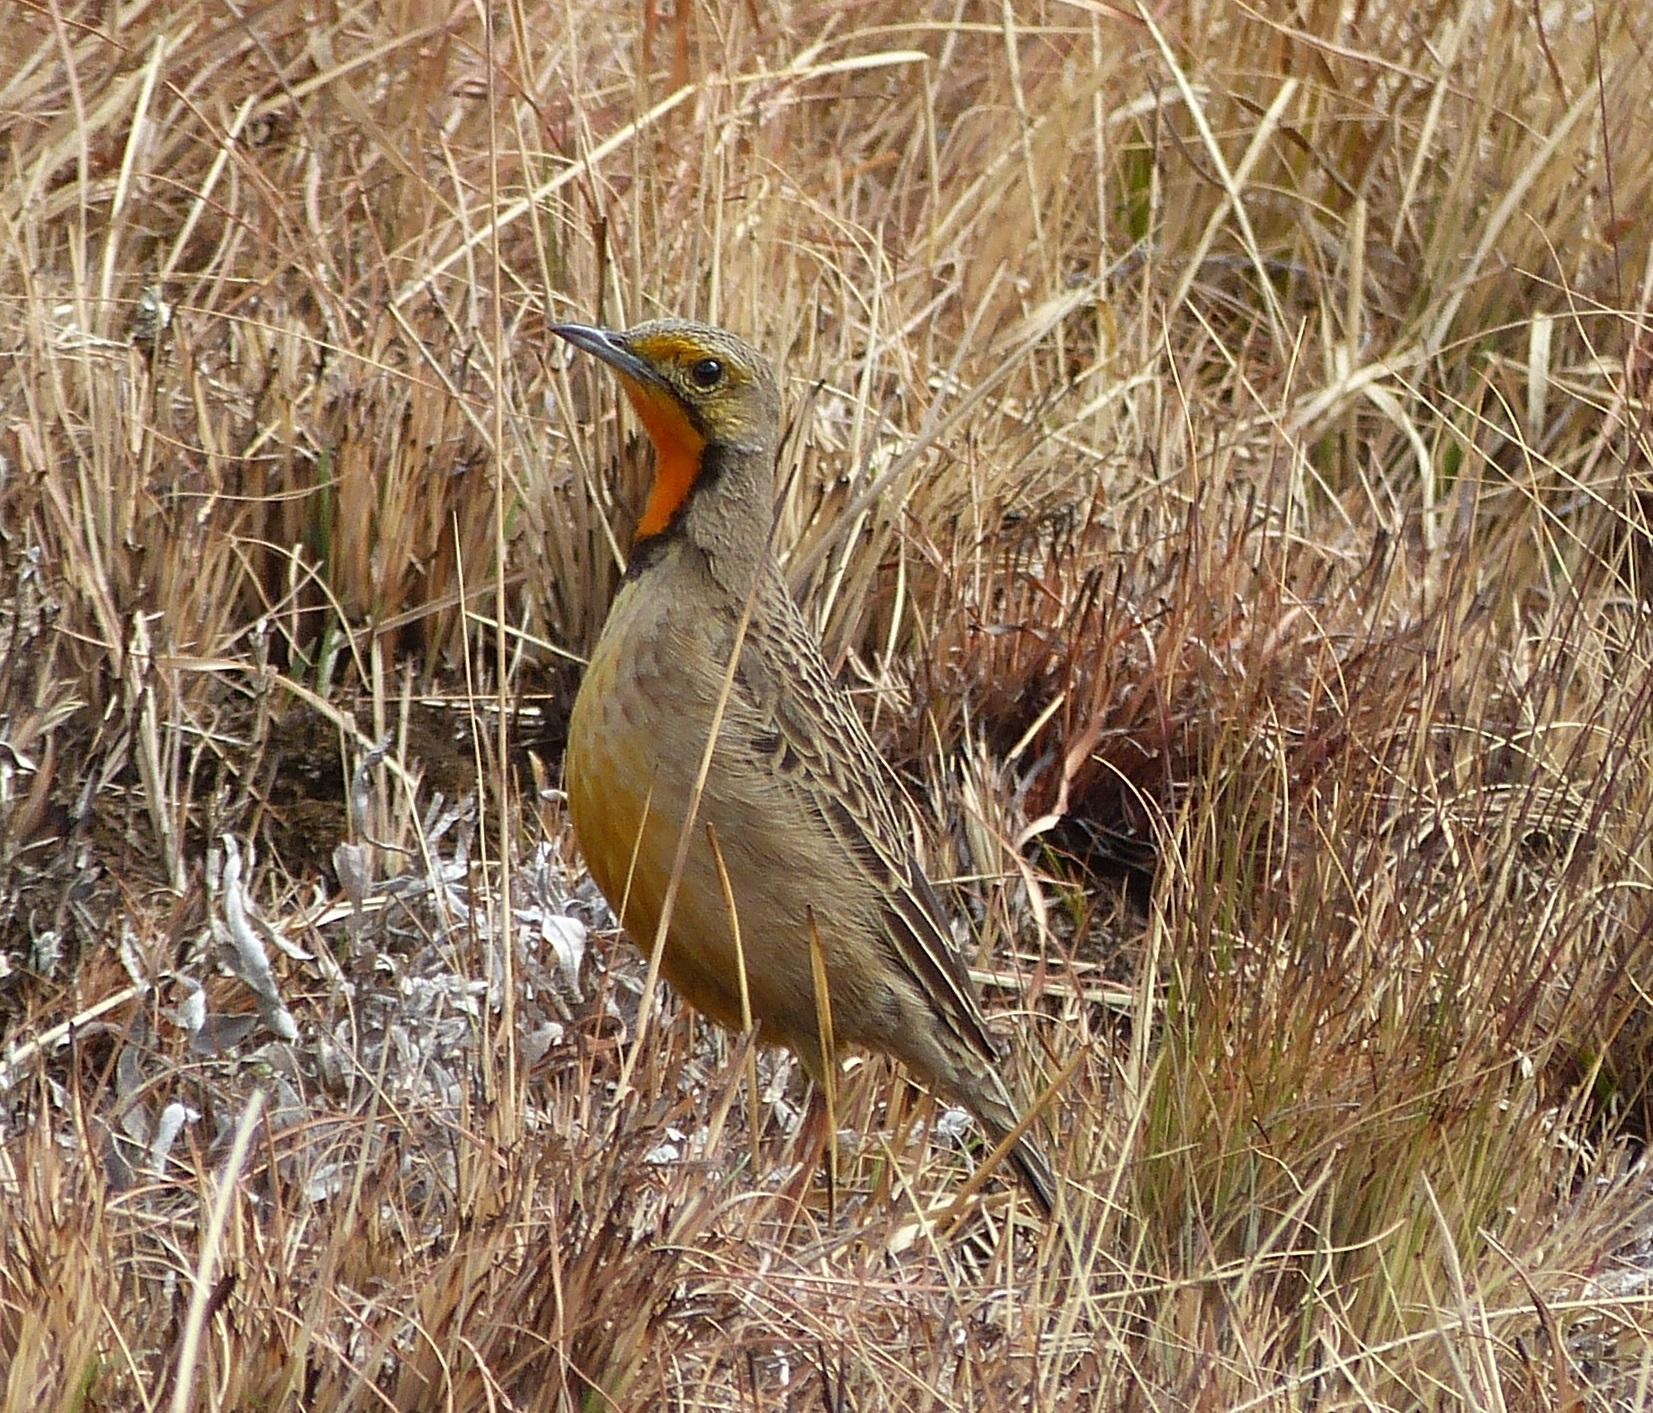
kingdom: Animalia
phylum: Chordata
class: Aves
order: Passeriformes
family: Motacillidae
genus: Macronyx
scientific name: Macronyx capensis
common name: Cape longclaw
